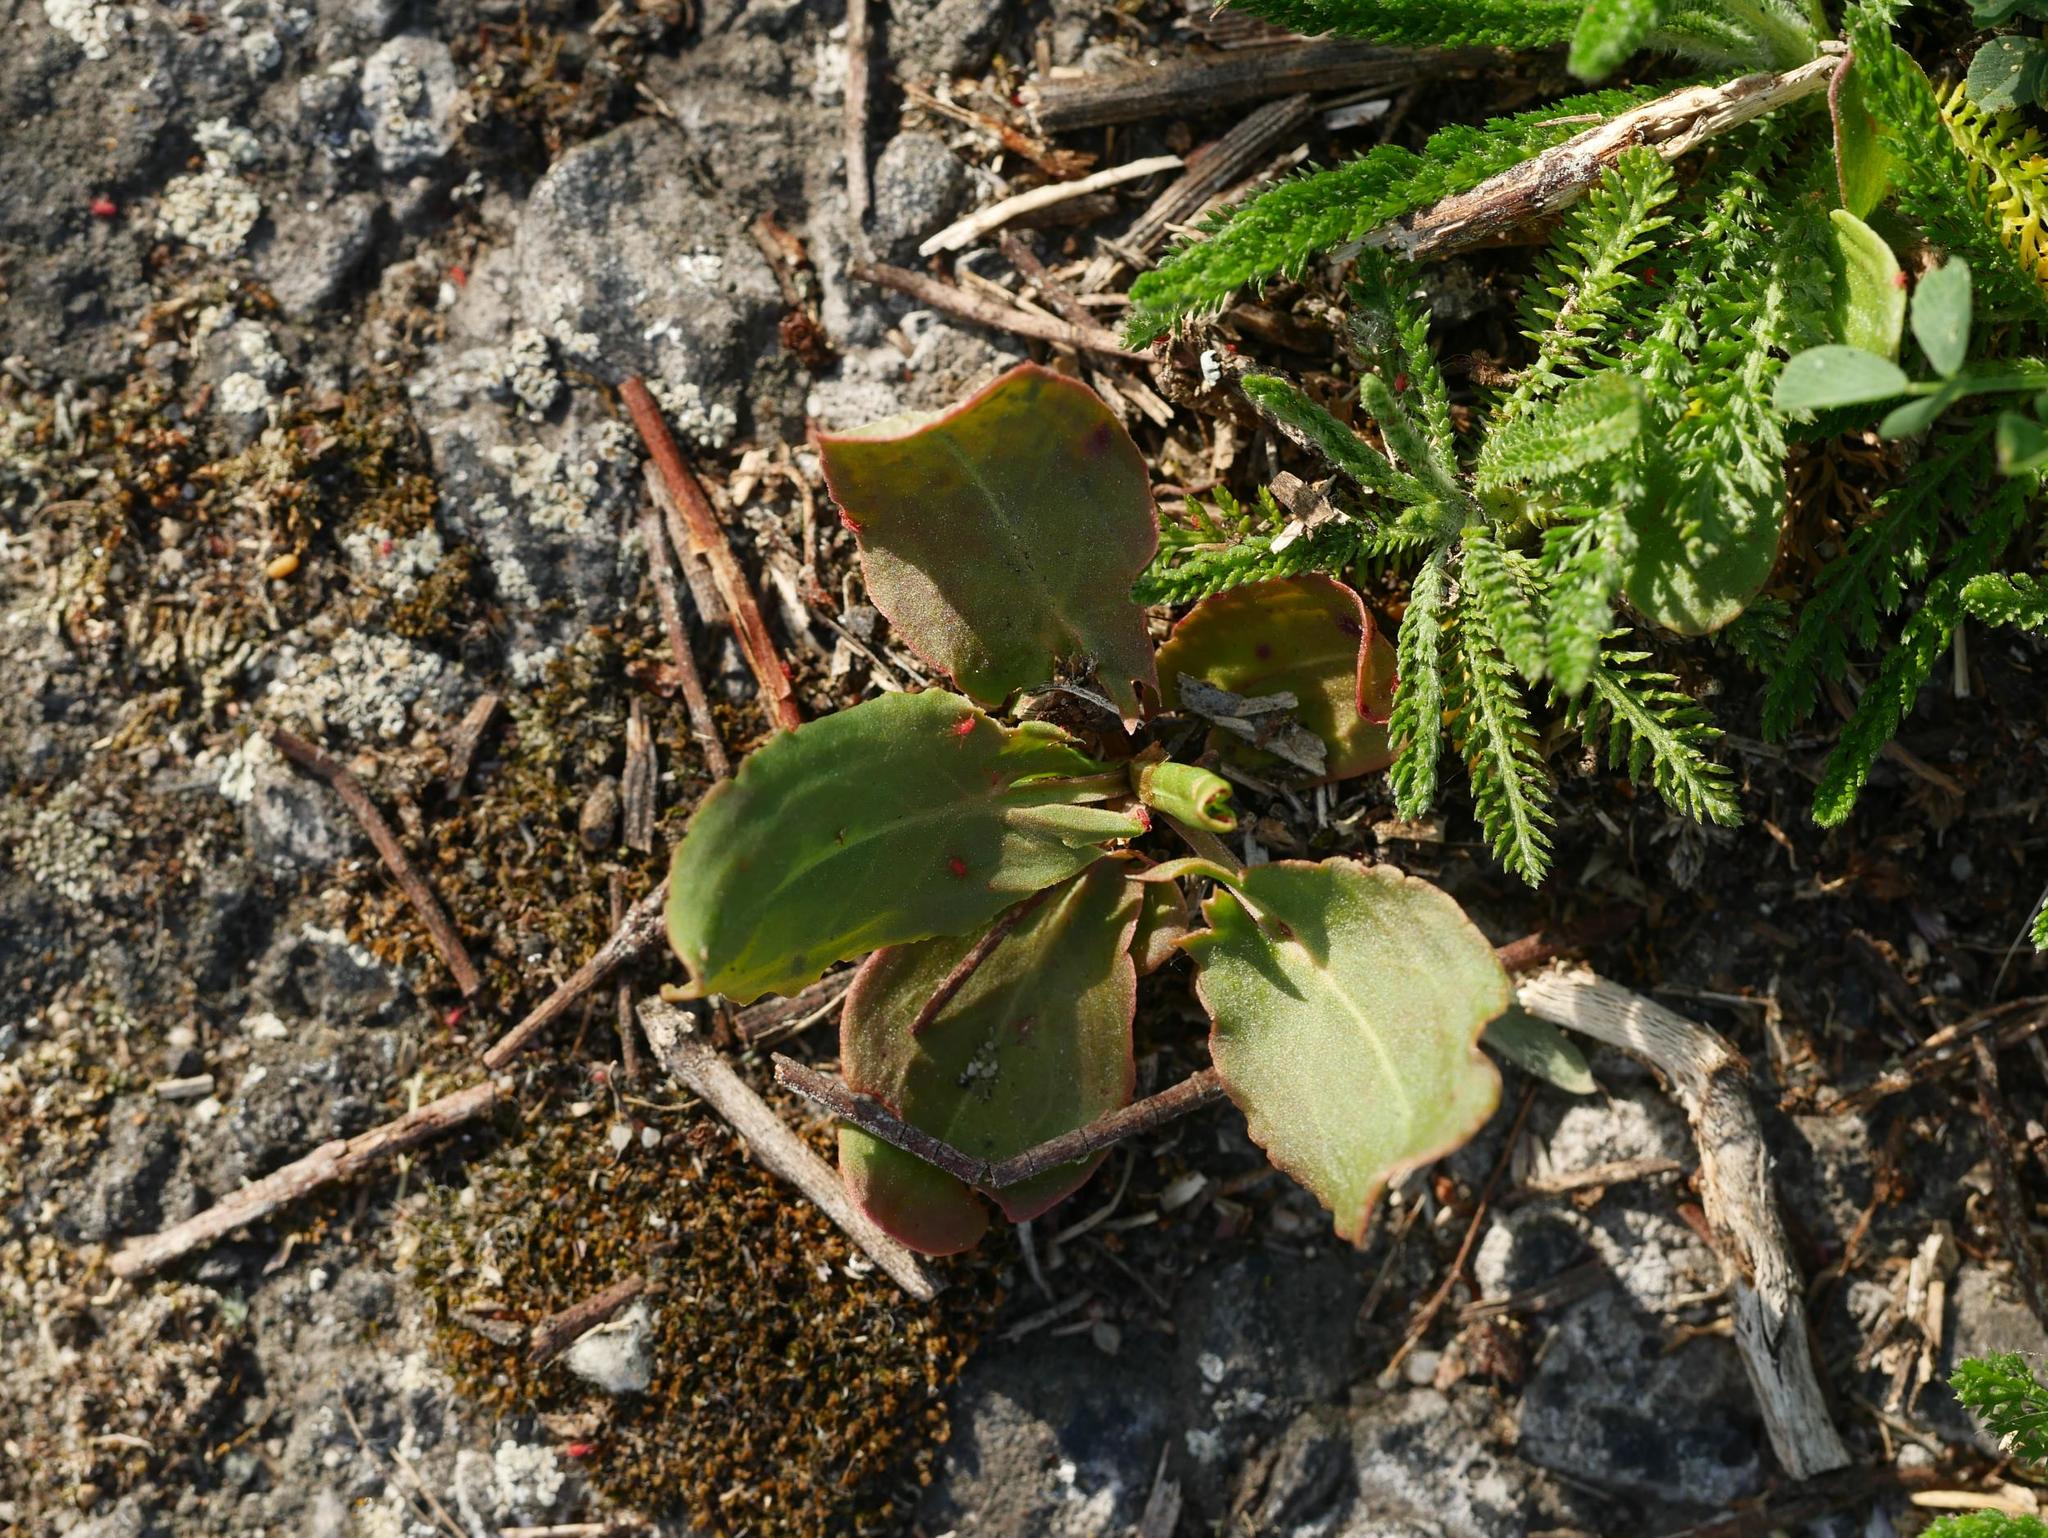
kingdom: Plantae
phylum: Tracheophyta
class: Magnoliopsida
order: Asterales
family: Asteraceae
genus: Achillea
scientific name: Achillea millefolium
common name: Yarrow
